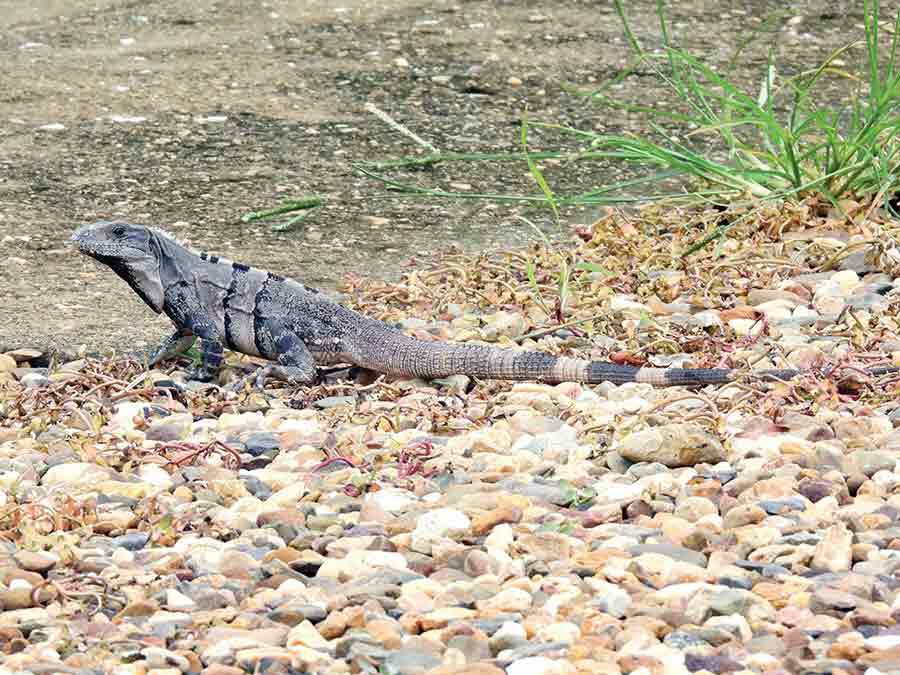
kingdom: Animalia
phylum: Chordata
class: Squamata
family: Iguanidae
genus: Ctenosaura
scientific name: Ctenosaura similis
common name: Black spiny-tailed iguana
